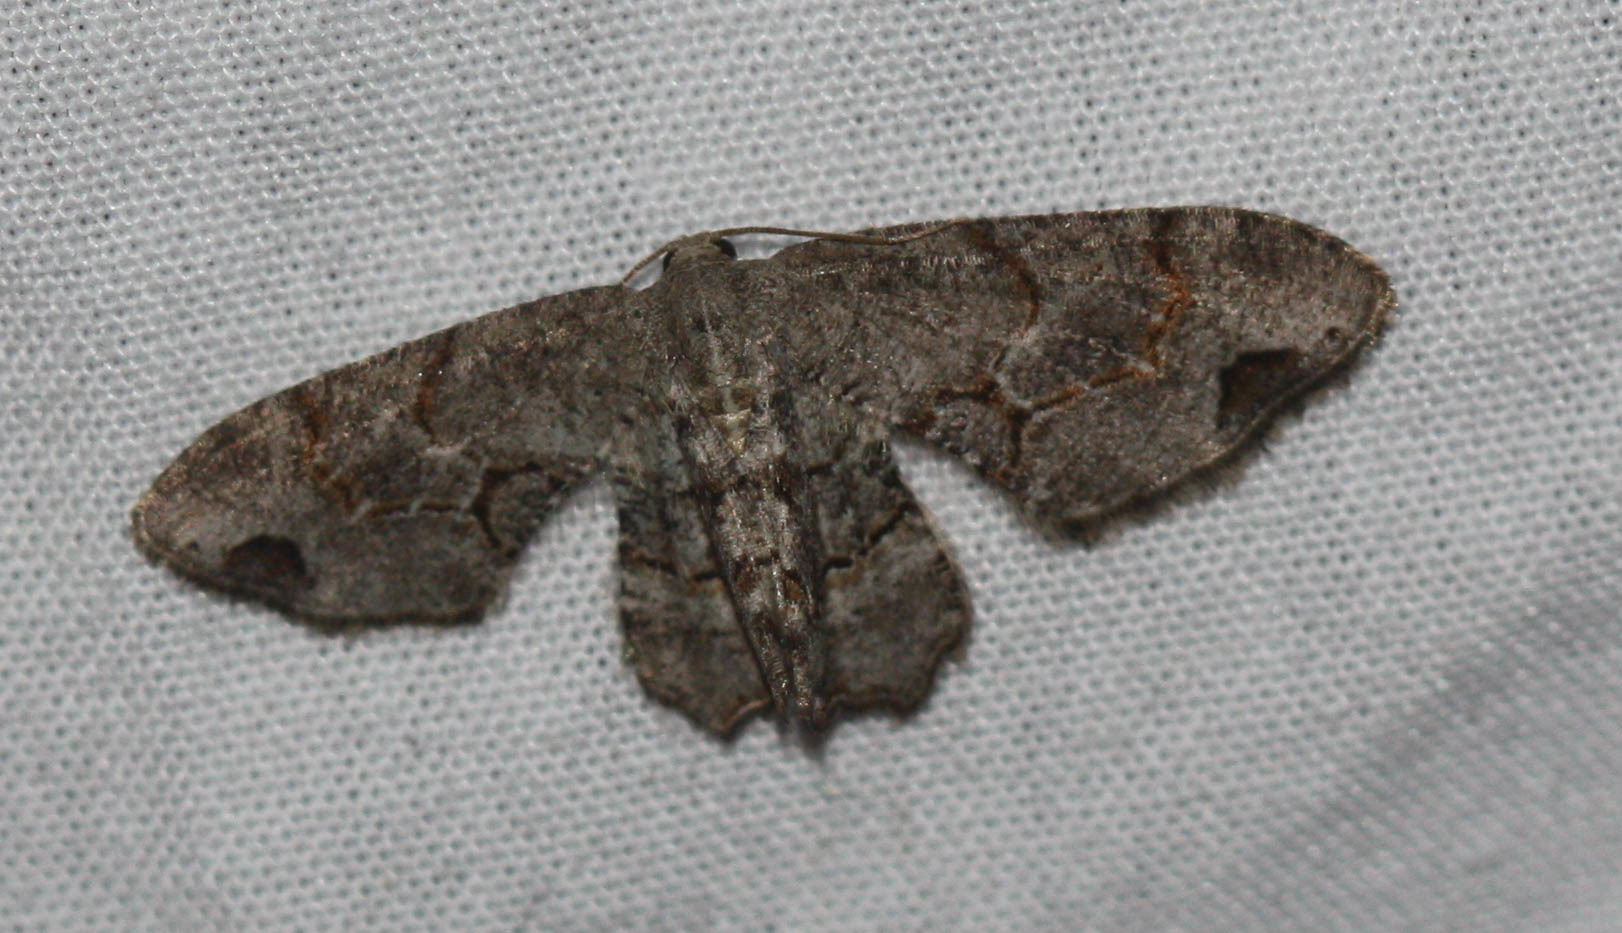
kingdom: Animalia
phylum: Arthropoda
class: Insecta
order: Lepidoptera
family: Uraniidae
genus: Epiplema
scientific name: Epiplema Callizzia amorata
